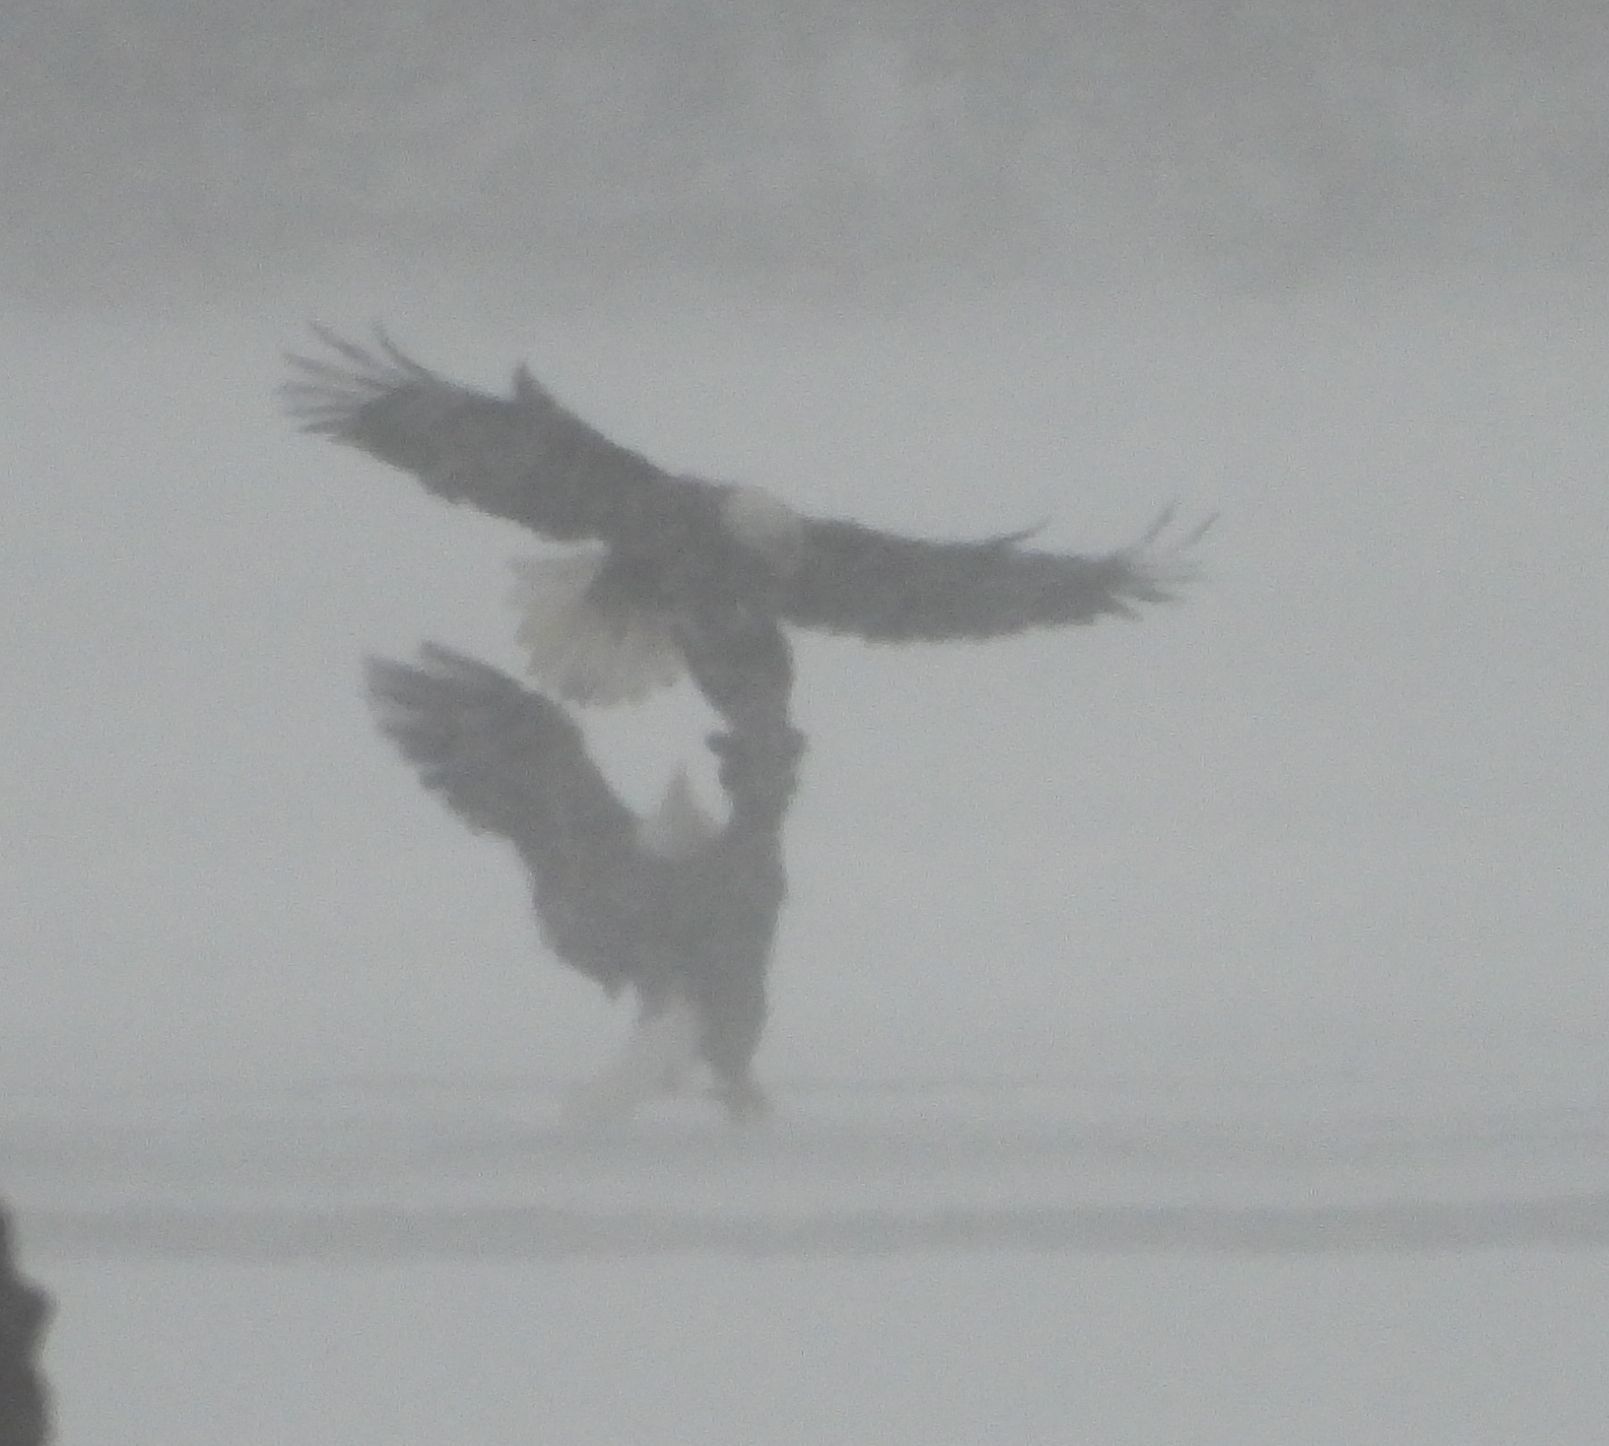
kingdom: Animalia
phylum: Chordata
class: Aves
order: Accipitriformes
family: Accipitridae
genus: Haliaeetus
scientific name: Haliaeetus leucocephalus
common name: Bald eagle
